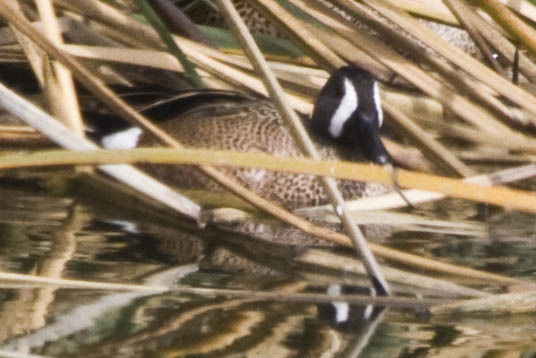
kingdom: Animalia
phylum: Chordata
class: Aves
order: Anseriformes
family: Anatidae
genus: Spatula
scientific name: Spatula discors
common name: Blue-winged teal
